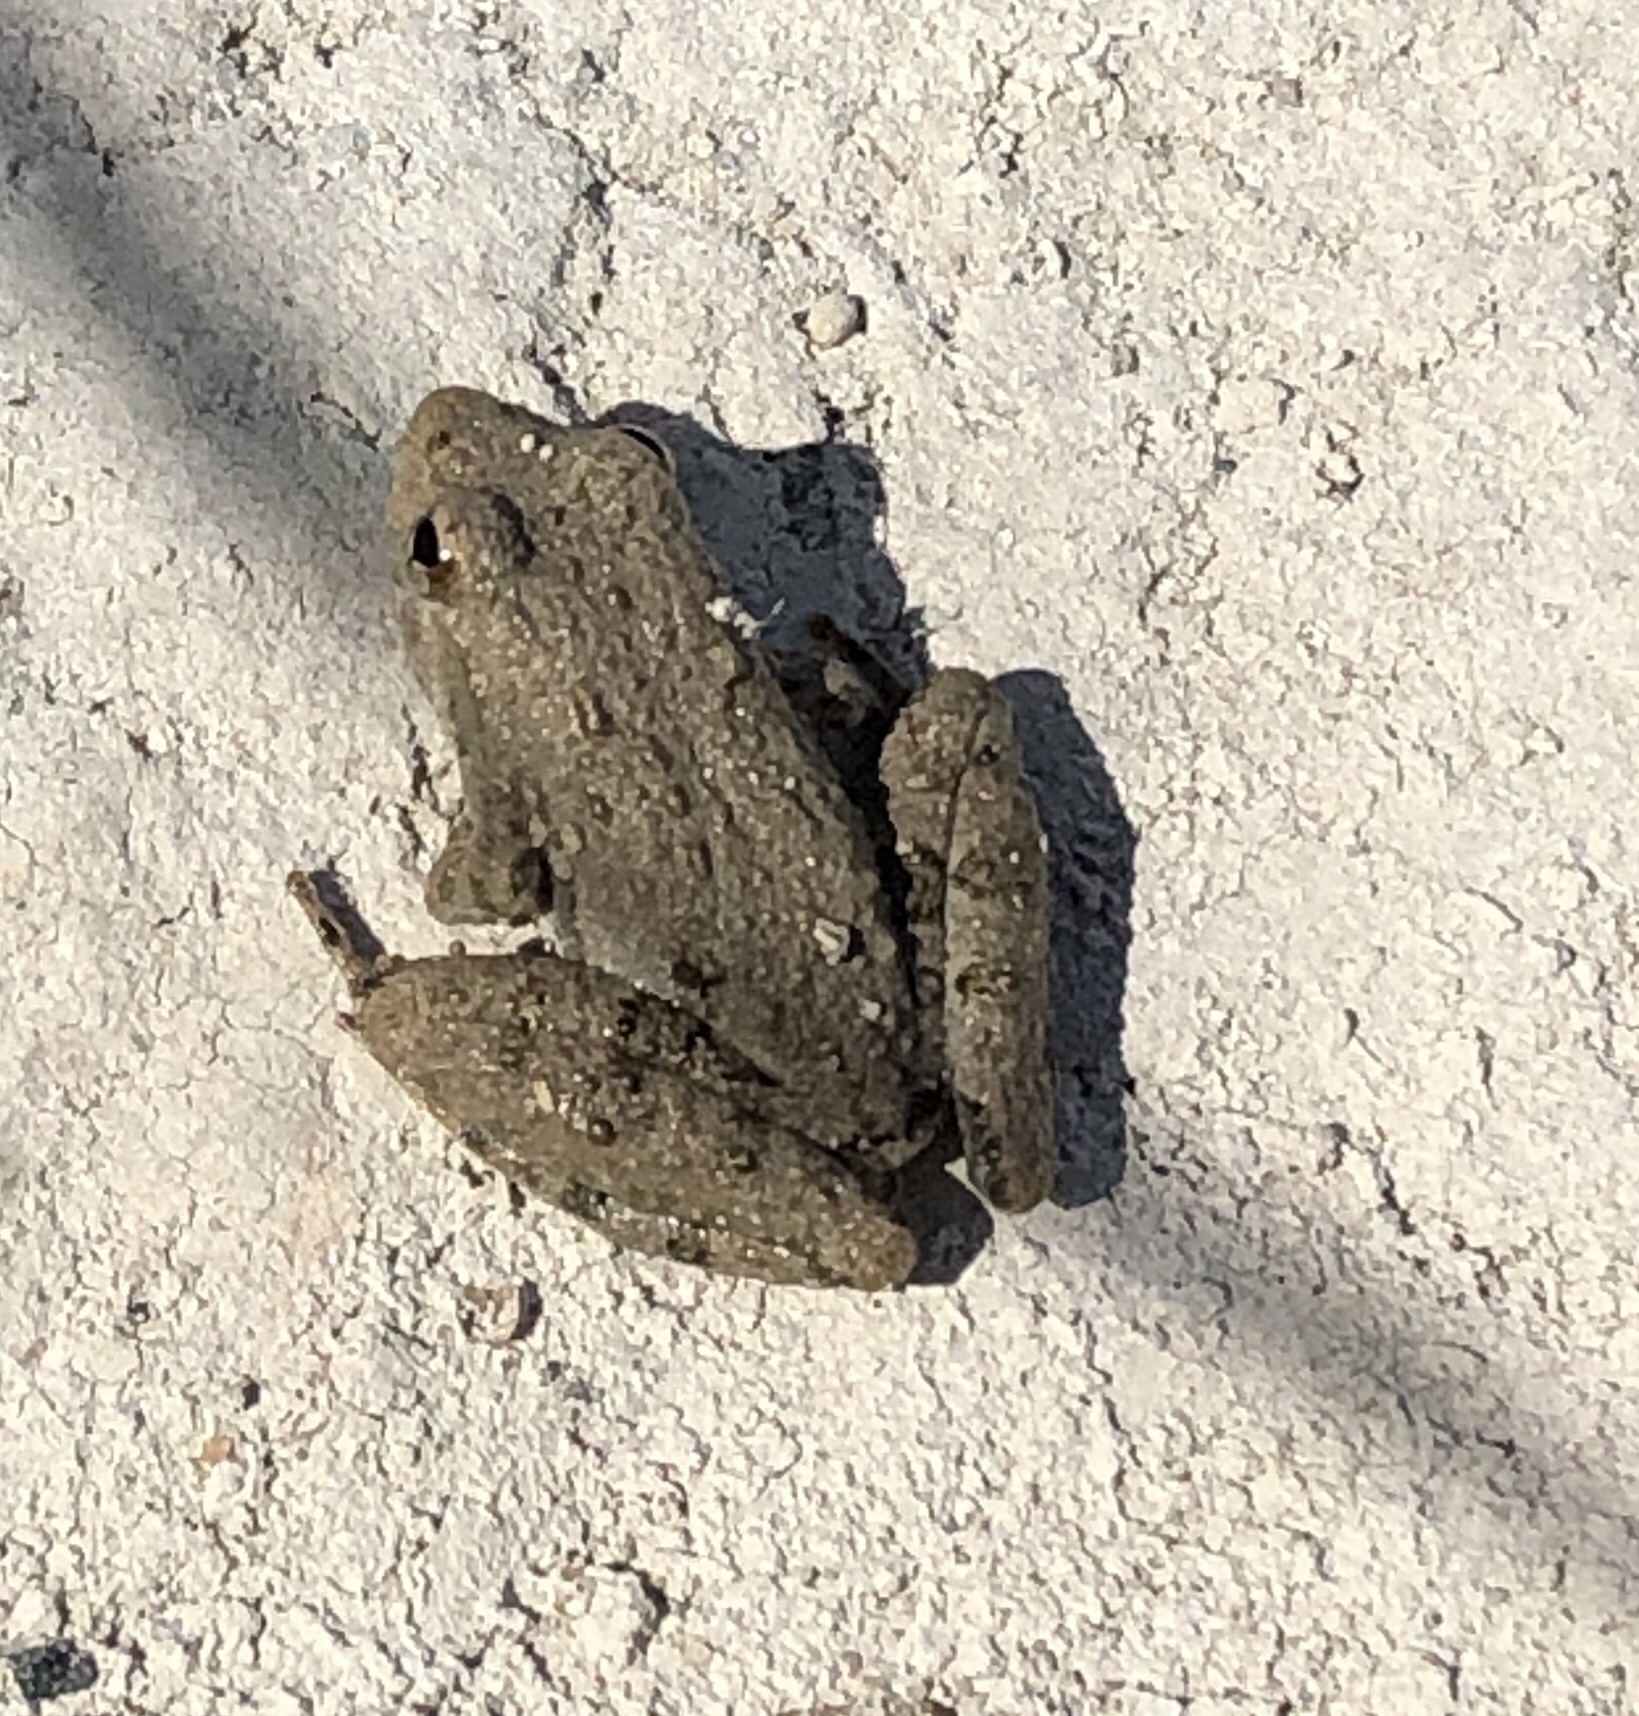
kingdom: Animalia
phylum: Chordata
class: Amphibia
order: Anura
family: Hylidae
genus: Acris
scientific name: Acris blanchardi
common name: Blanchard's cricket frog
